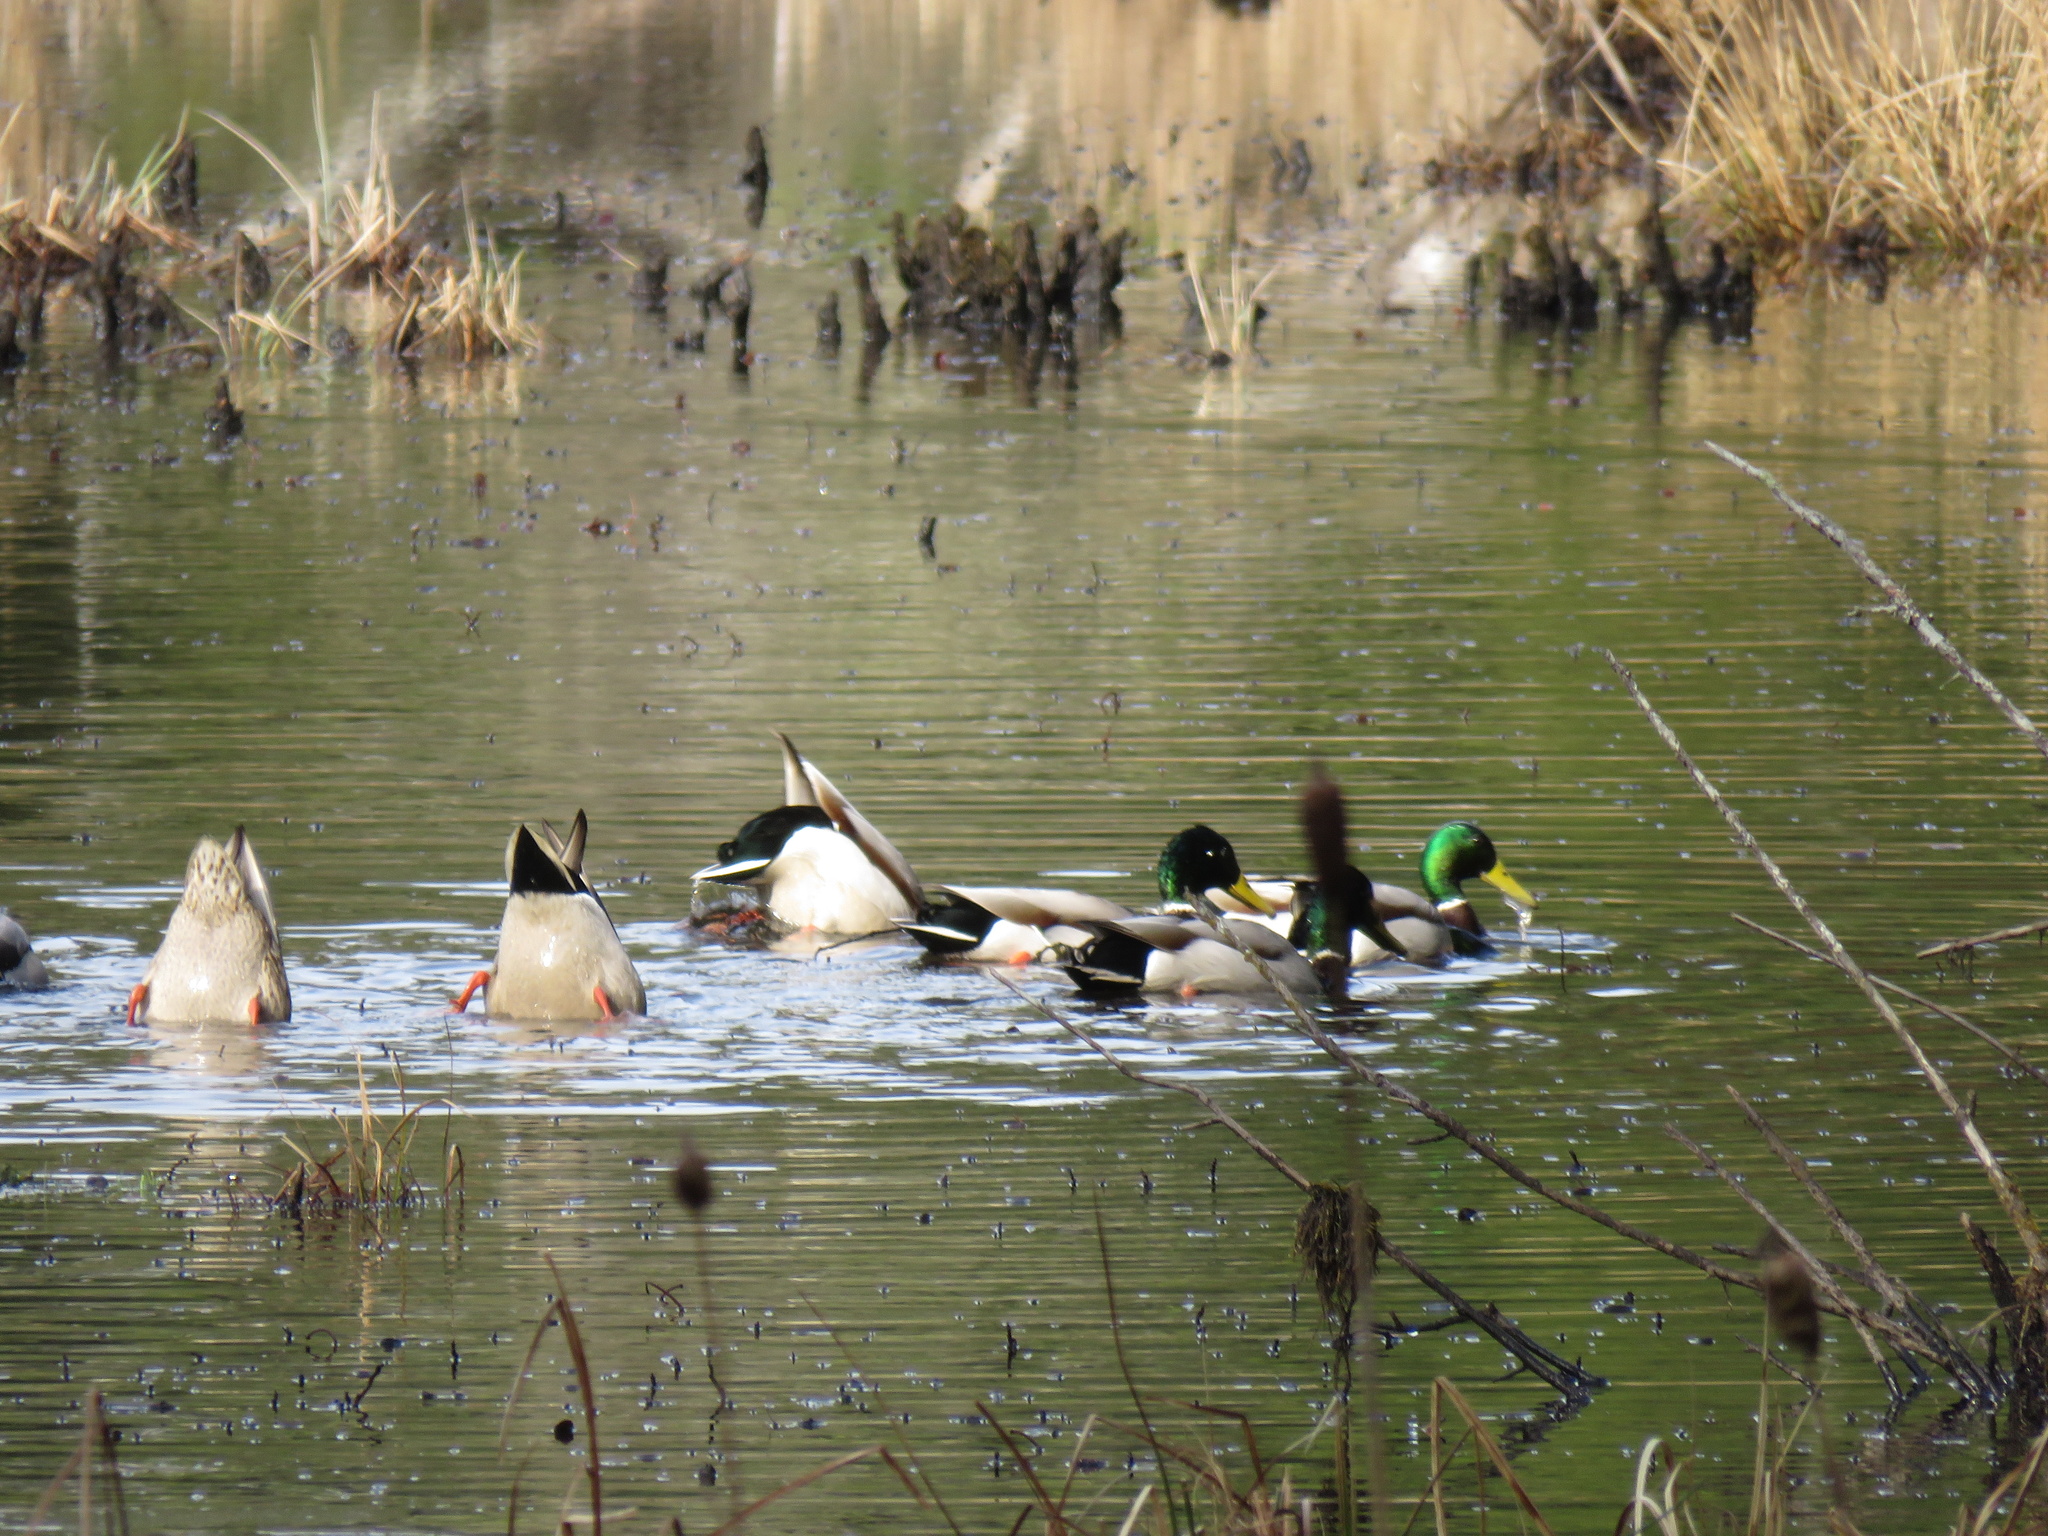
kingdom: Animalia
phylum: Chordata
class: Aves
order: Anseriformes
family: Anatidae
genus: Anas
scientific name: Anas platyrhynchos
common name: Mallard
